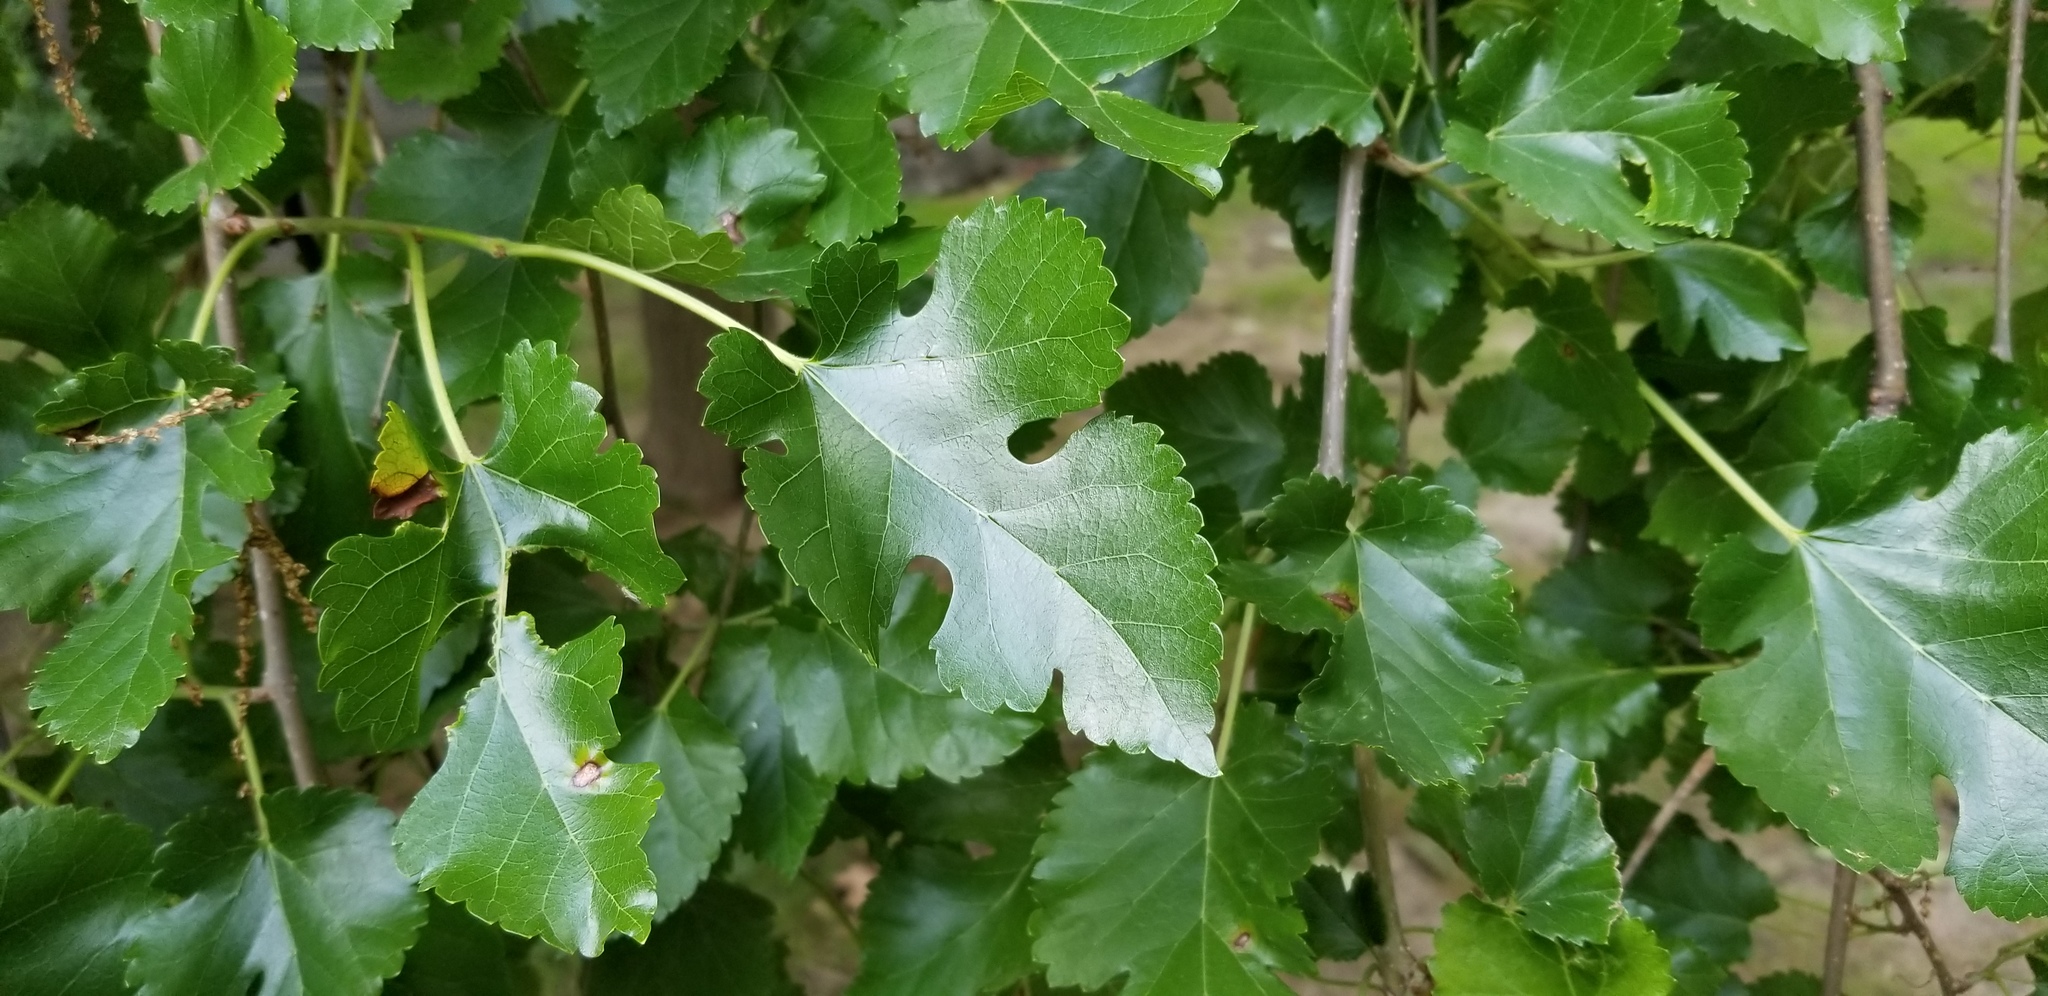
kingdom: Plantae
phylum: Tracheophyta
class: Magnoliopsida
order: Rosales
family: Moraceae
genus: Morus
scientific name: Morus alba
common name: White mulberry
